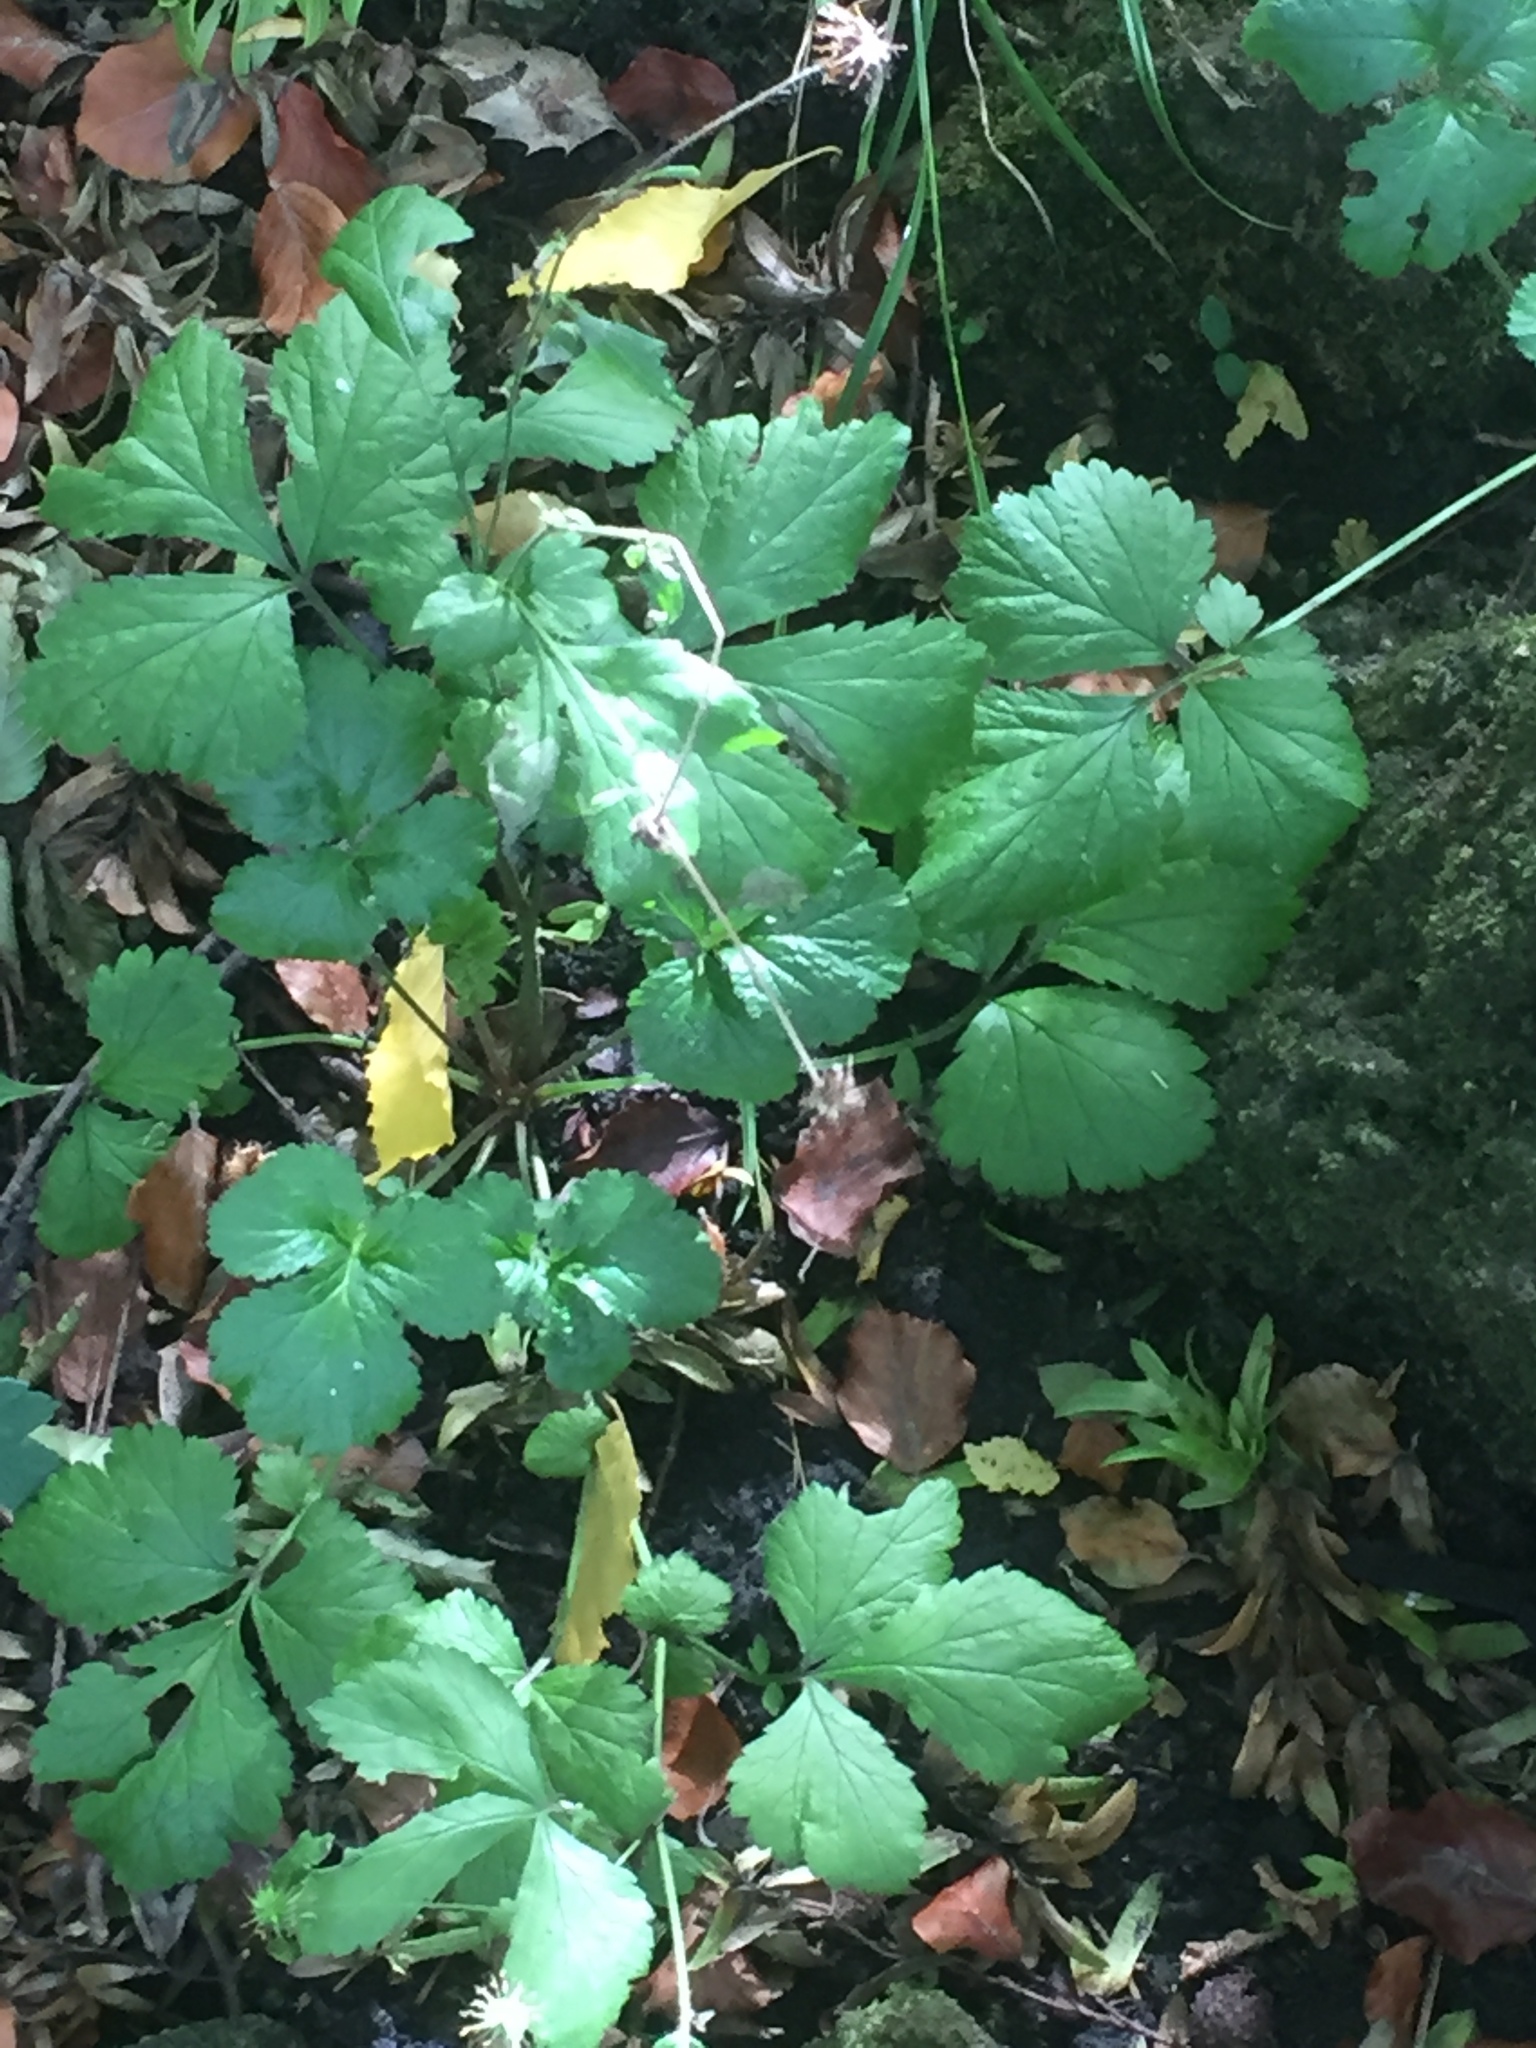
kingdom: Plantae
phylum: Tracheophyta
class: Magnoliopsida
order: Rosales
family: Rosaceae
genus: Geum
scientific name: Geum urbanum
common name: Wood avens
